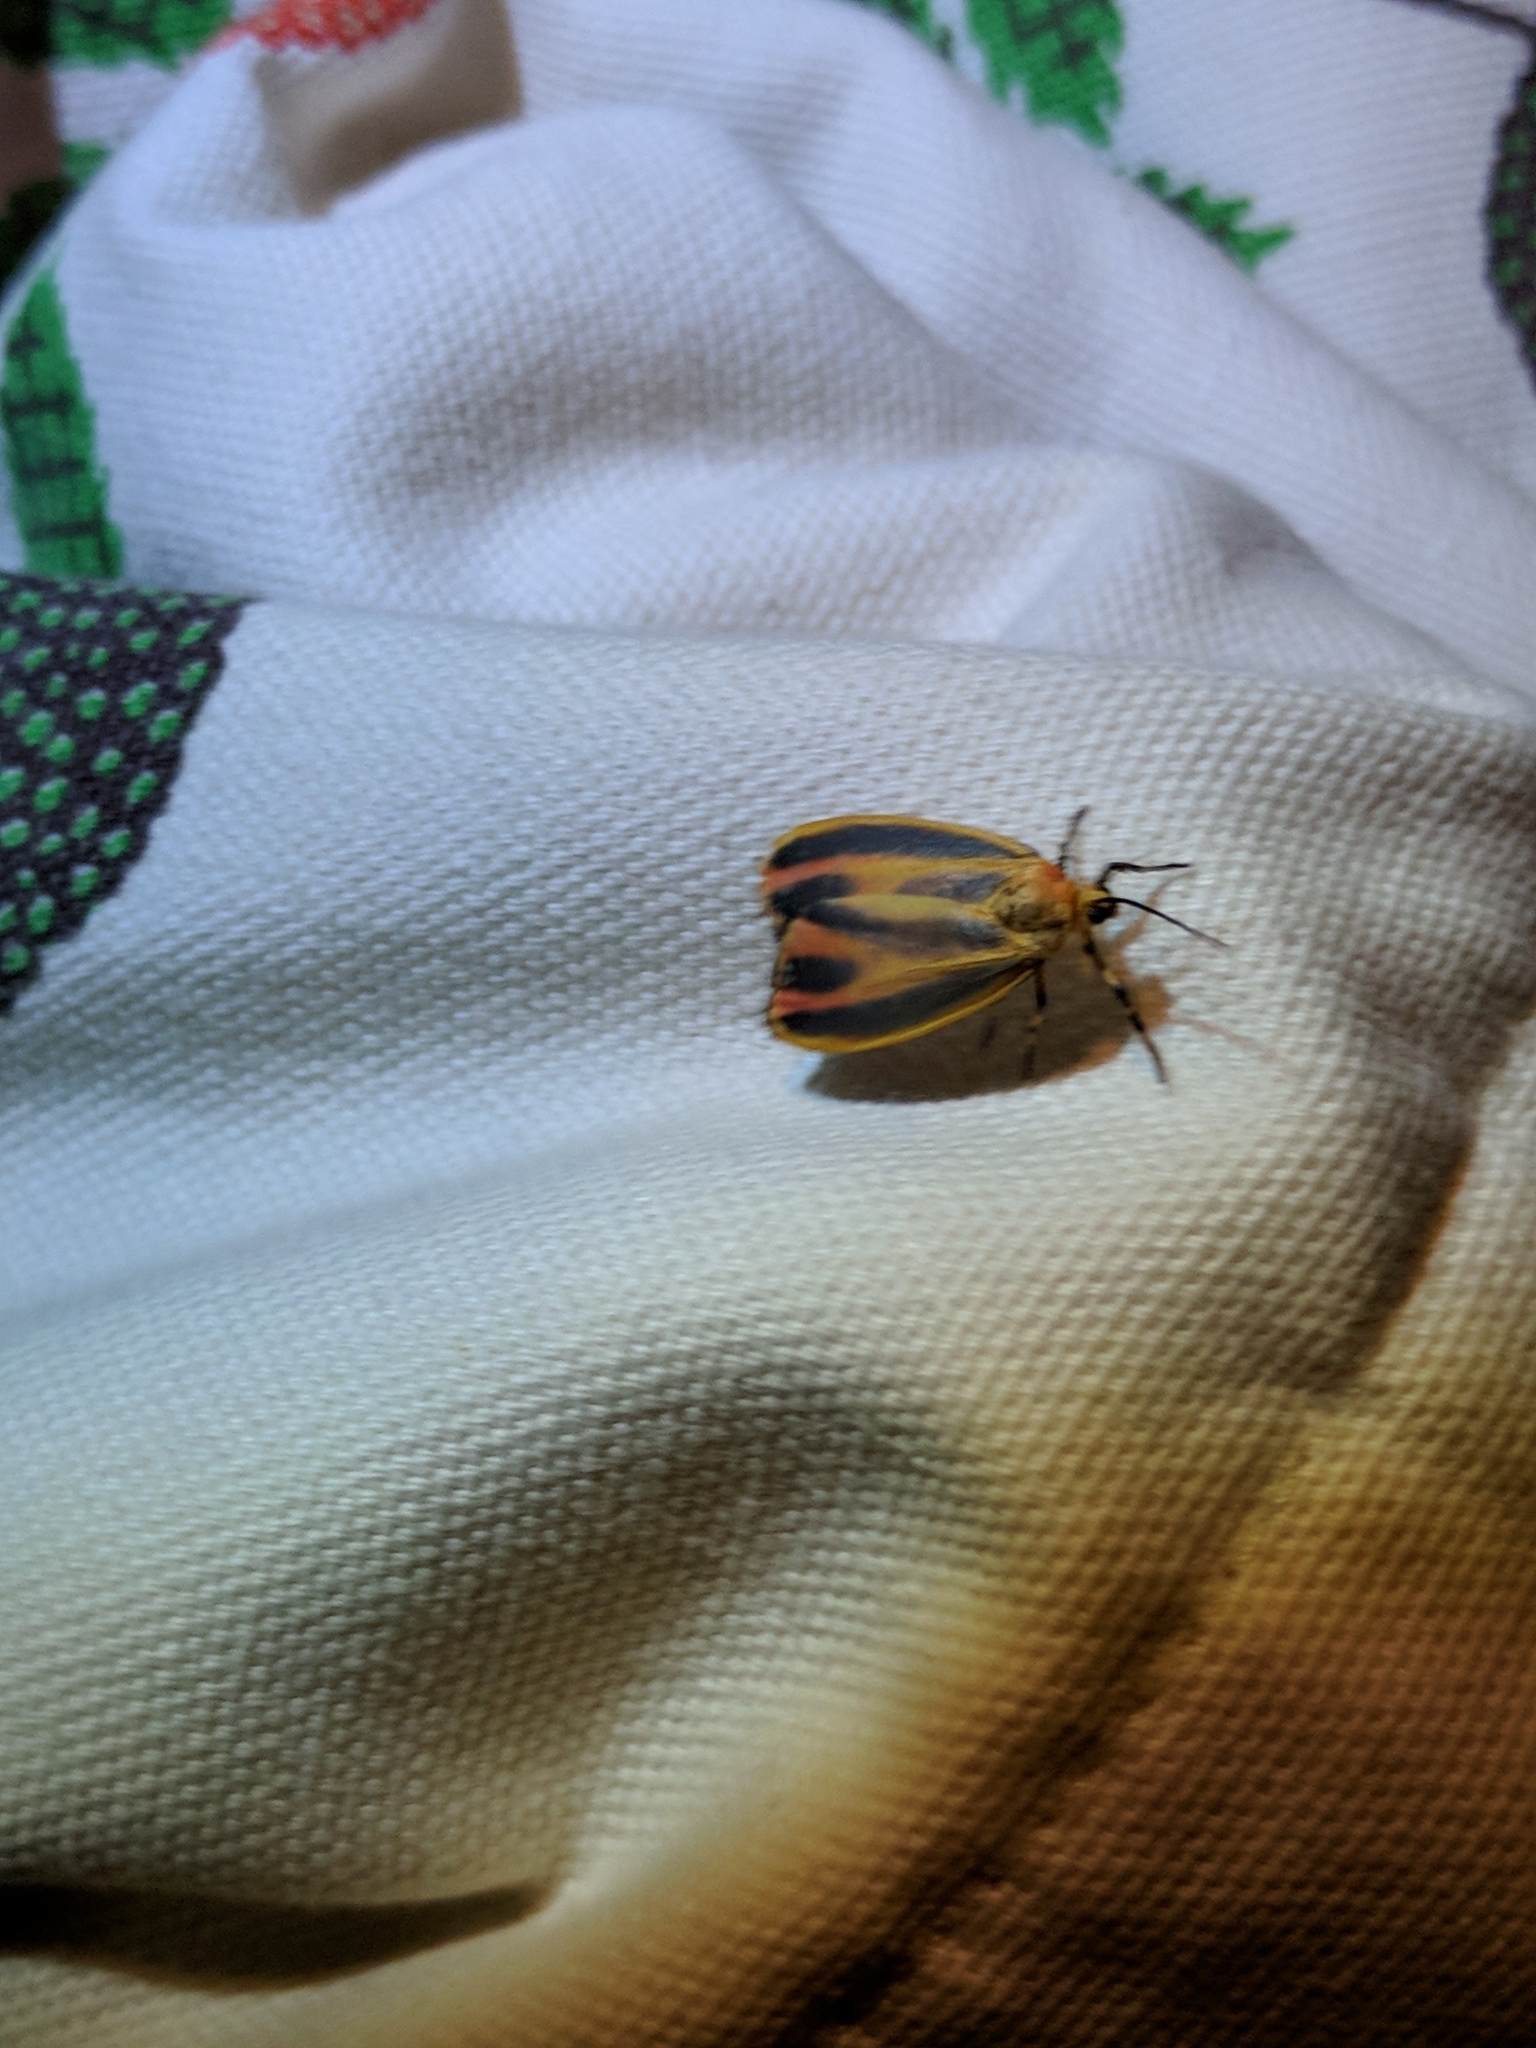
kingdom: Animalia
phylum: Arthropoda
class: Insecta
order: Lepidoptera
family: Erebidae
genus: Hypoprepia
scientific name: Hypoprepia fucosa
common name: Painted lichen moth
